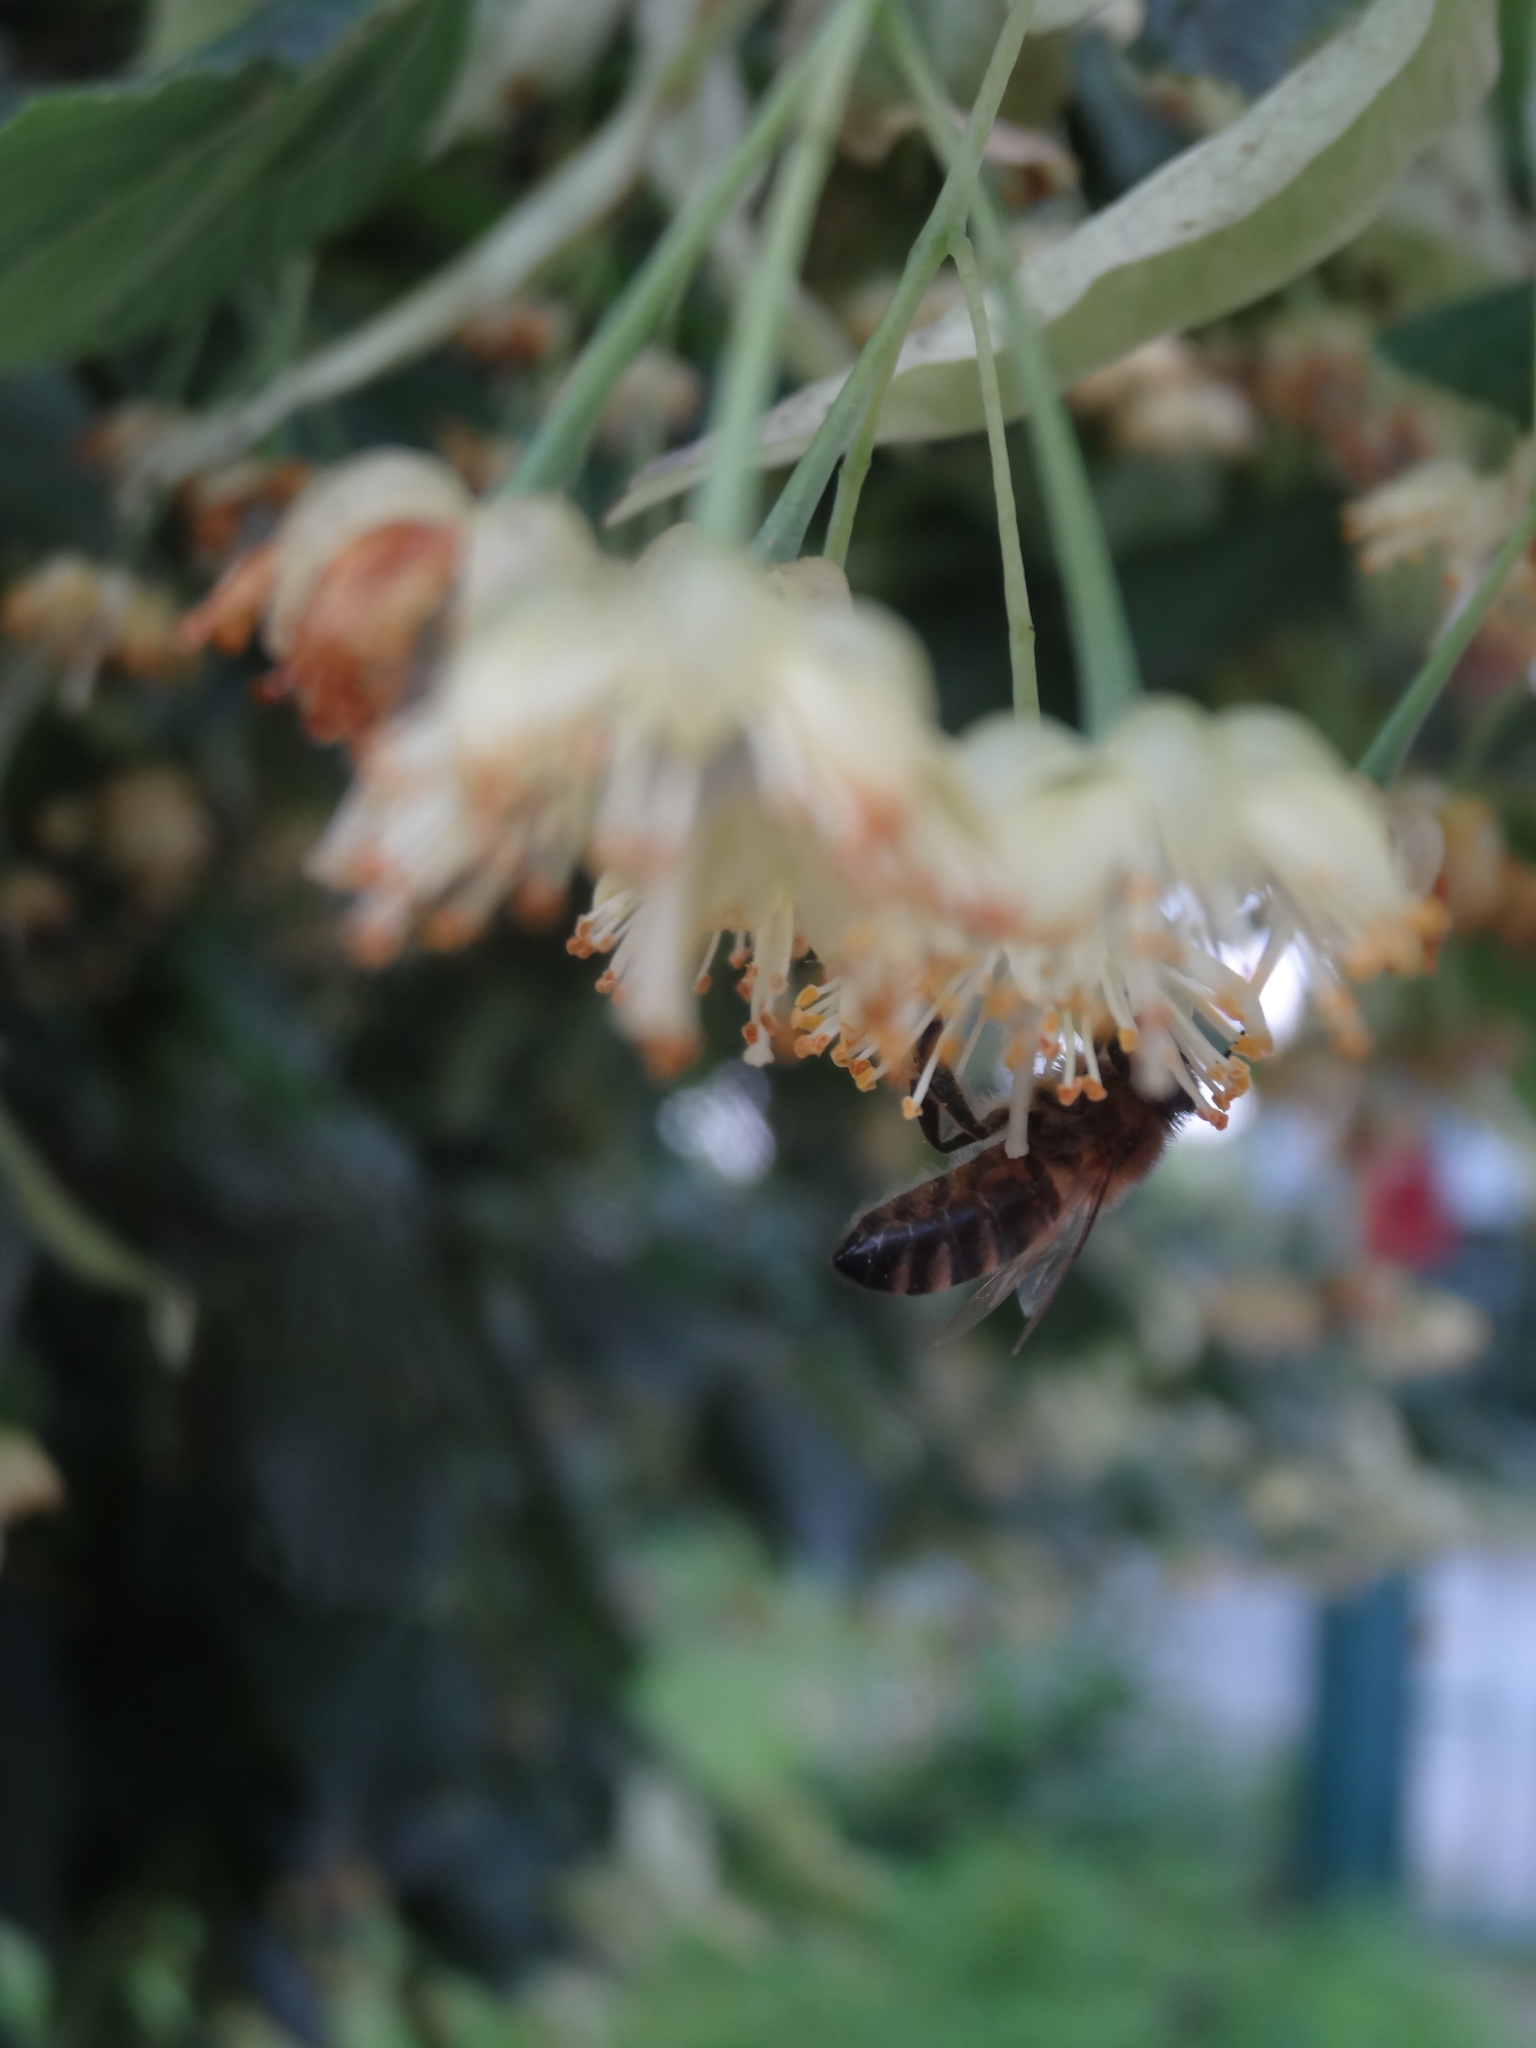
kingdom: Animalia
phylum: Arthropoda
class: Insecta
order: Hymenoptera
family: Apidae
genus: Apis
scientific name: Apis mellifera
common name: Honey bee
